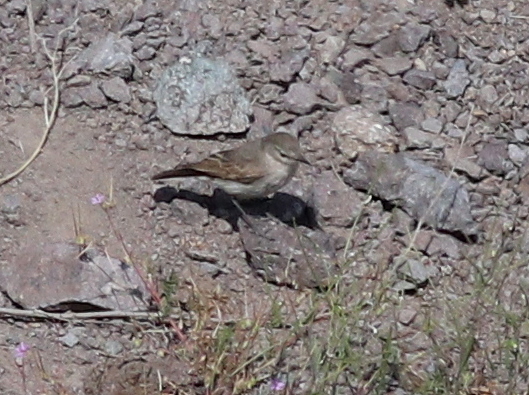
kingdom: Animalia
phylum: Chordata
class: Aves
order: Passeriformes
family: Tyrannidae
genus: Muscisaxicola
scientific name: Muscisaxicola maculirostris
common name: Spot-billed ground tyrant
